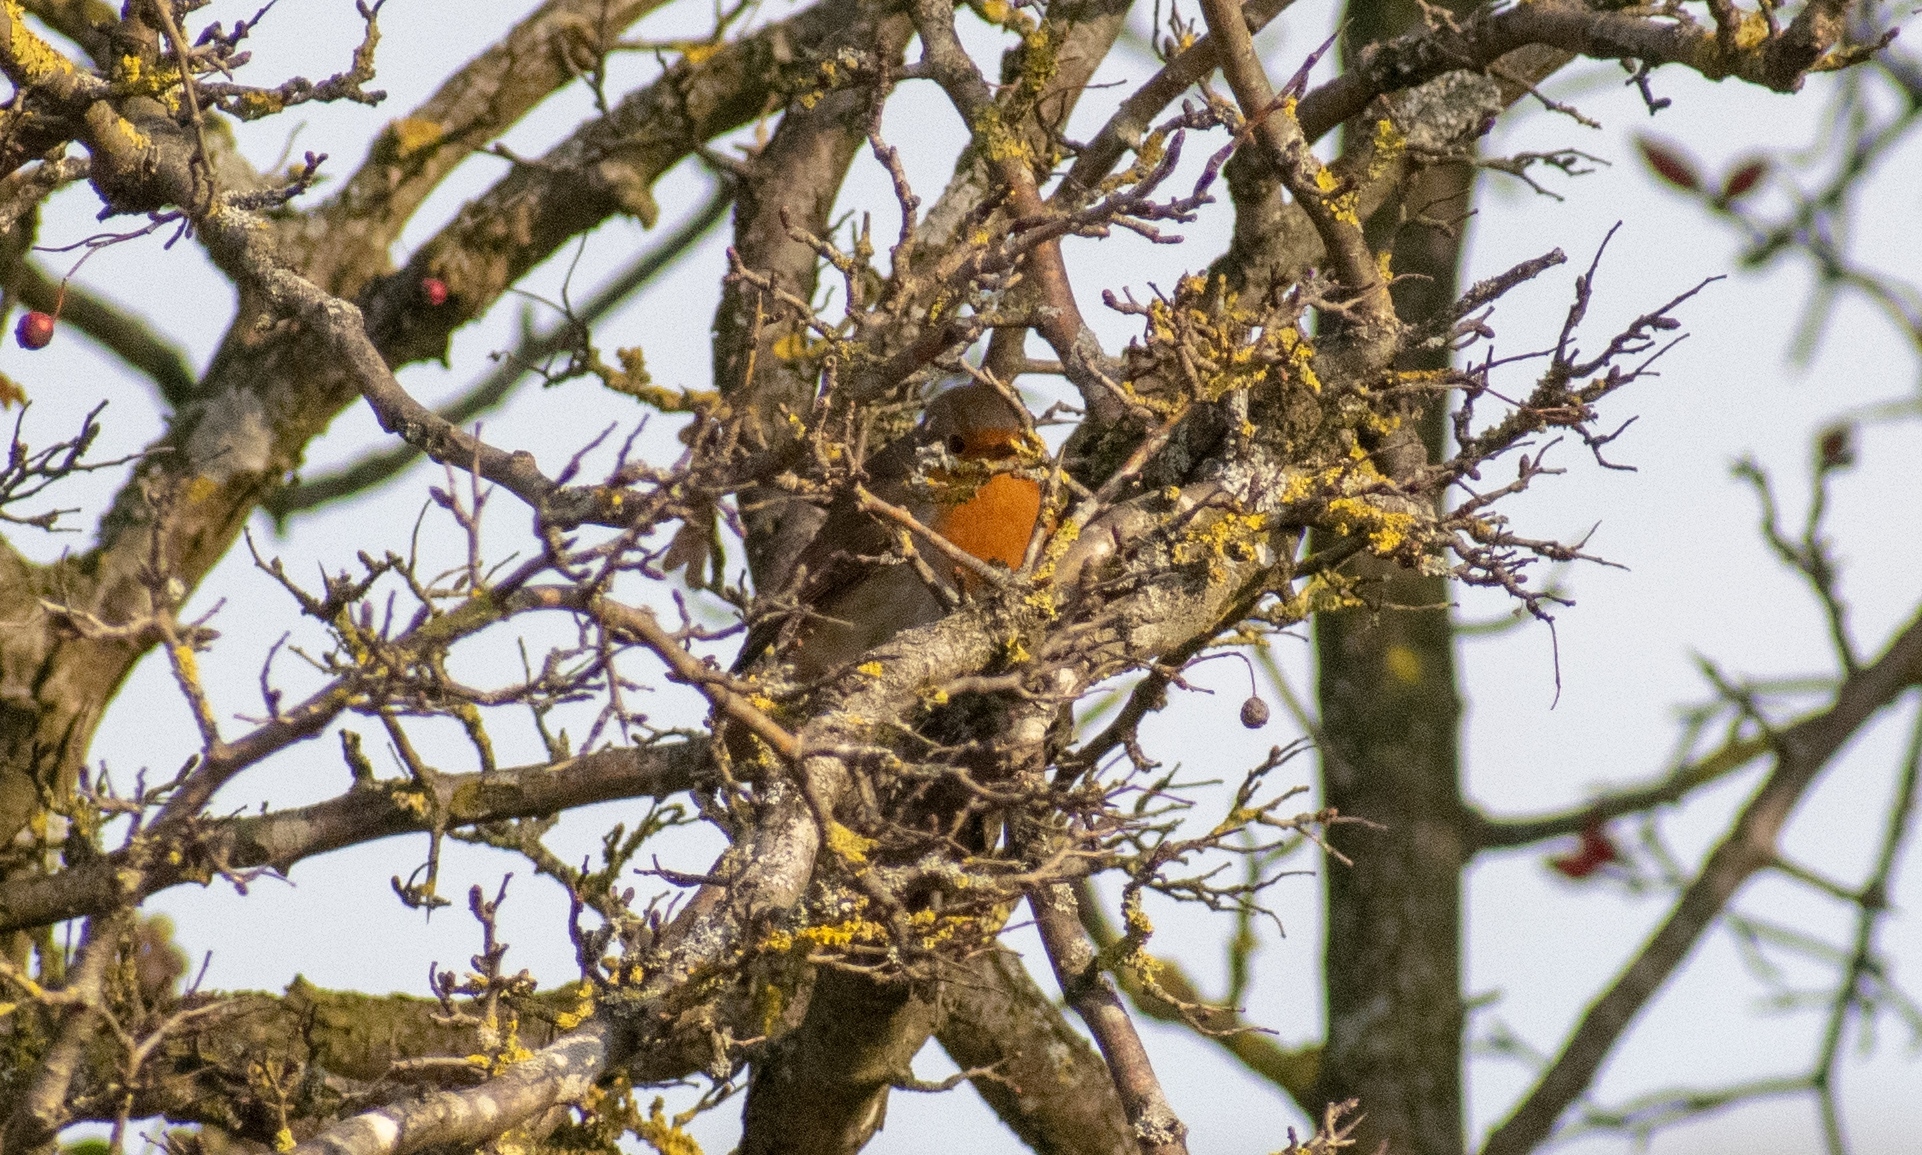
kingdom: Animalia
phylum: Chordata
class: Aves
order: Passeriformes
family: Muscicapidae
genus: Erithacus
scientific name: Erithacus rubecula
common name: European robin
